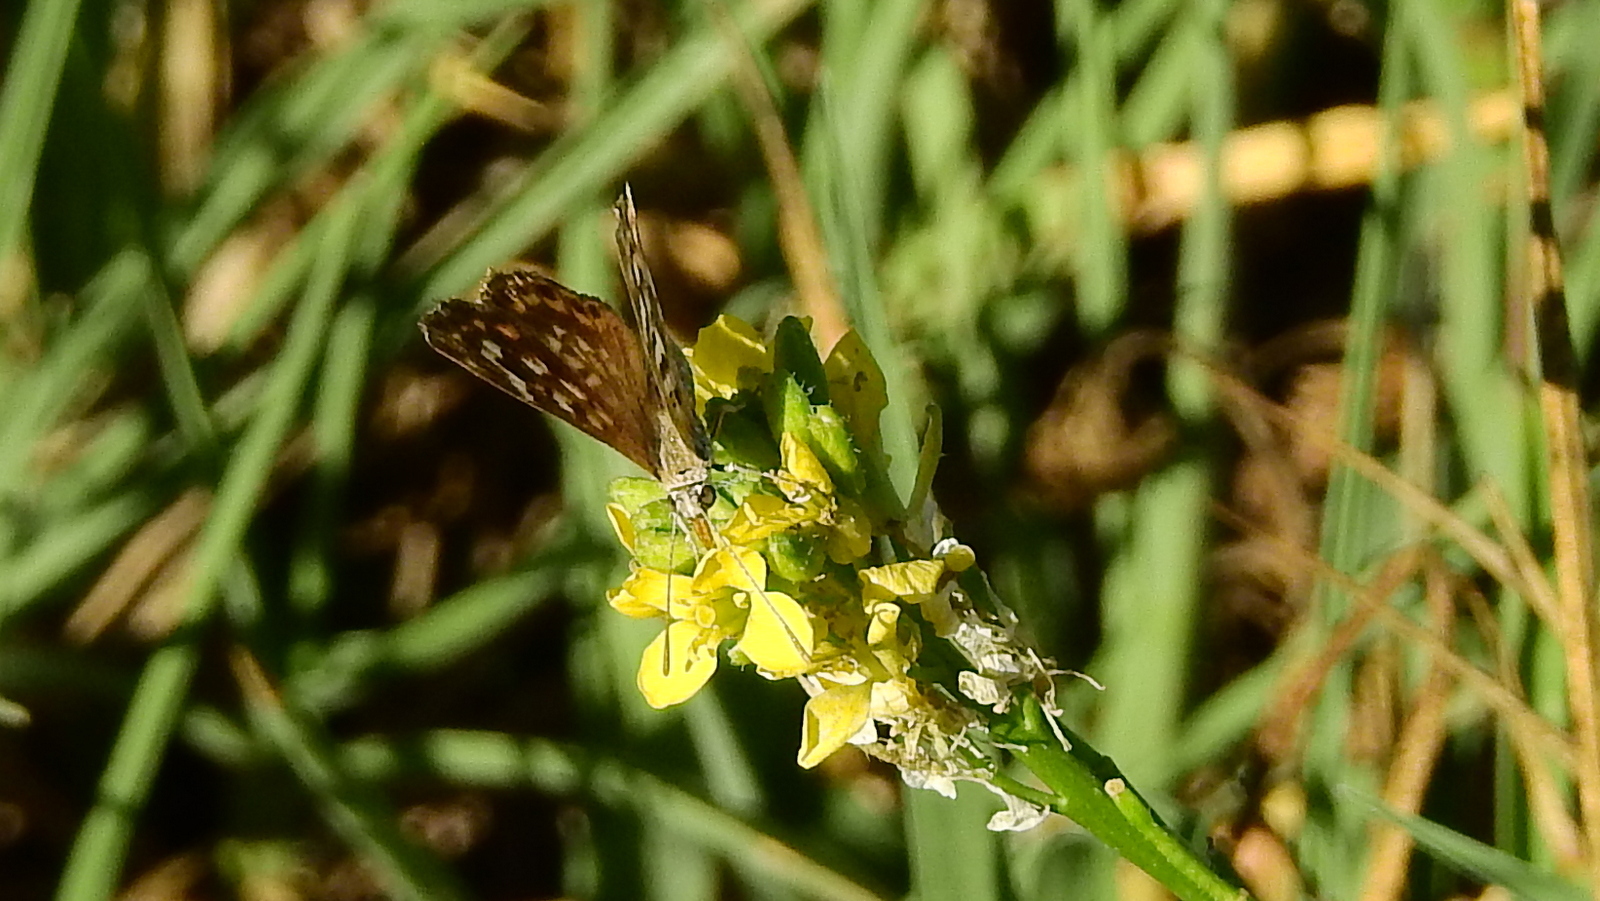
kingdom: Animalia
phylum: Arthropoda
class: Insecta
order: Lepidoptera
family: Lycaenidae
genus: Aricoris
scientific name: Aricoris indistincta
